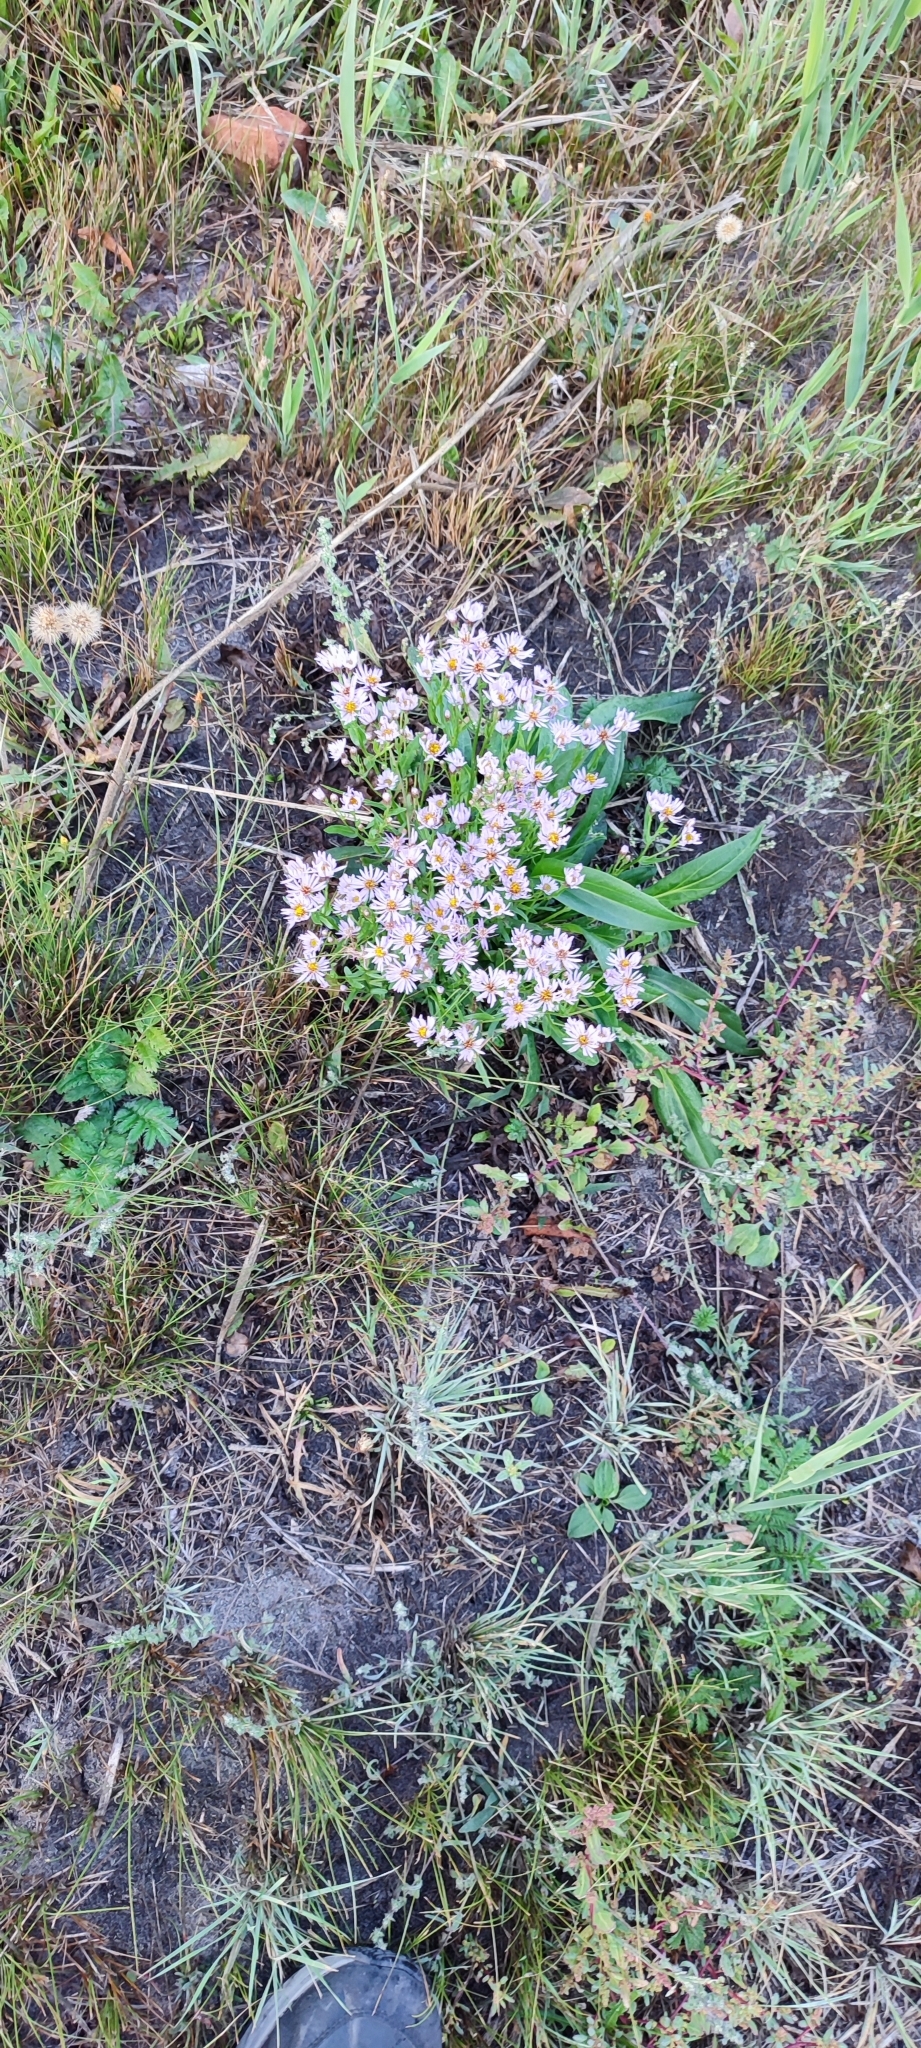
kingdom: Plantae
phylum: Tracheophyta
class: Magnoliopsida
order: Asterales
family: Asteraceae
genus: Tripolium
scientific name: Tripolium pannonicum
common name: Sea aster
